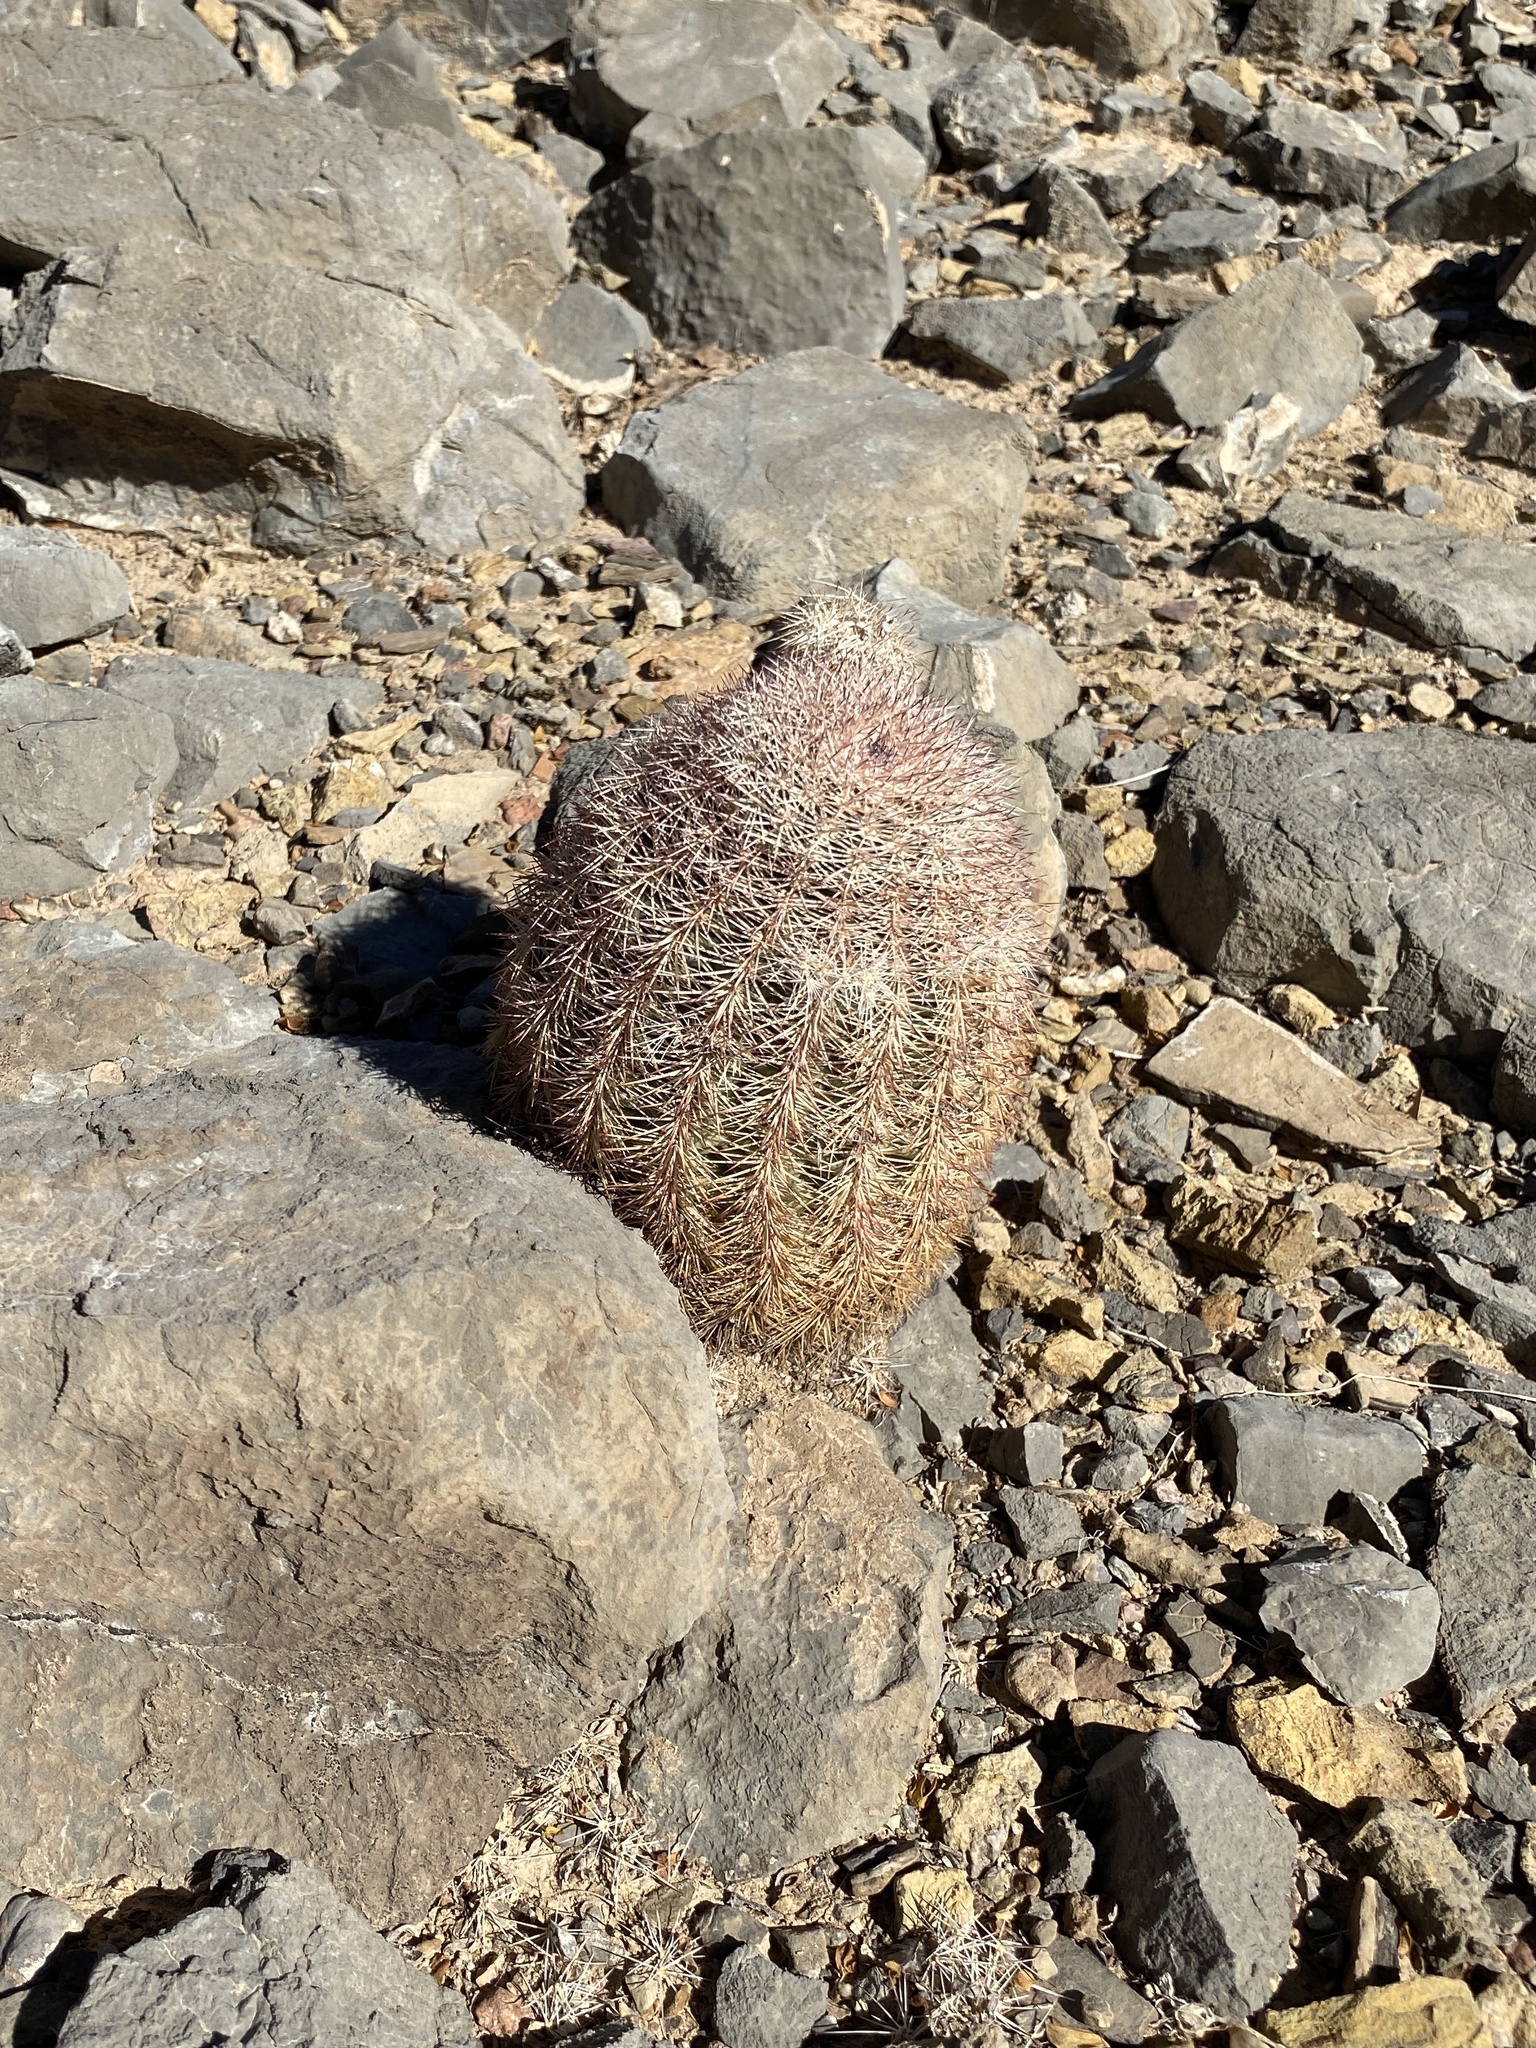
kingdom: Plantae
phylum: Tracheophyta
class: Magnoliopsida
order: Caryophyllales
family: Cactaceae
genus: Echinocereus
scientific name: Echinocereus dasyacanthus
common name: Spiny hedgehog cactus
